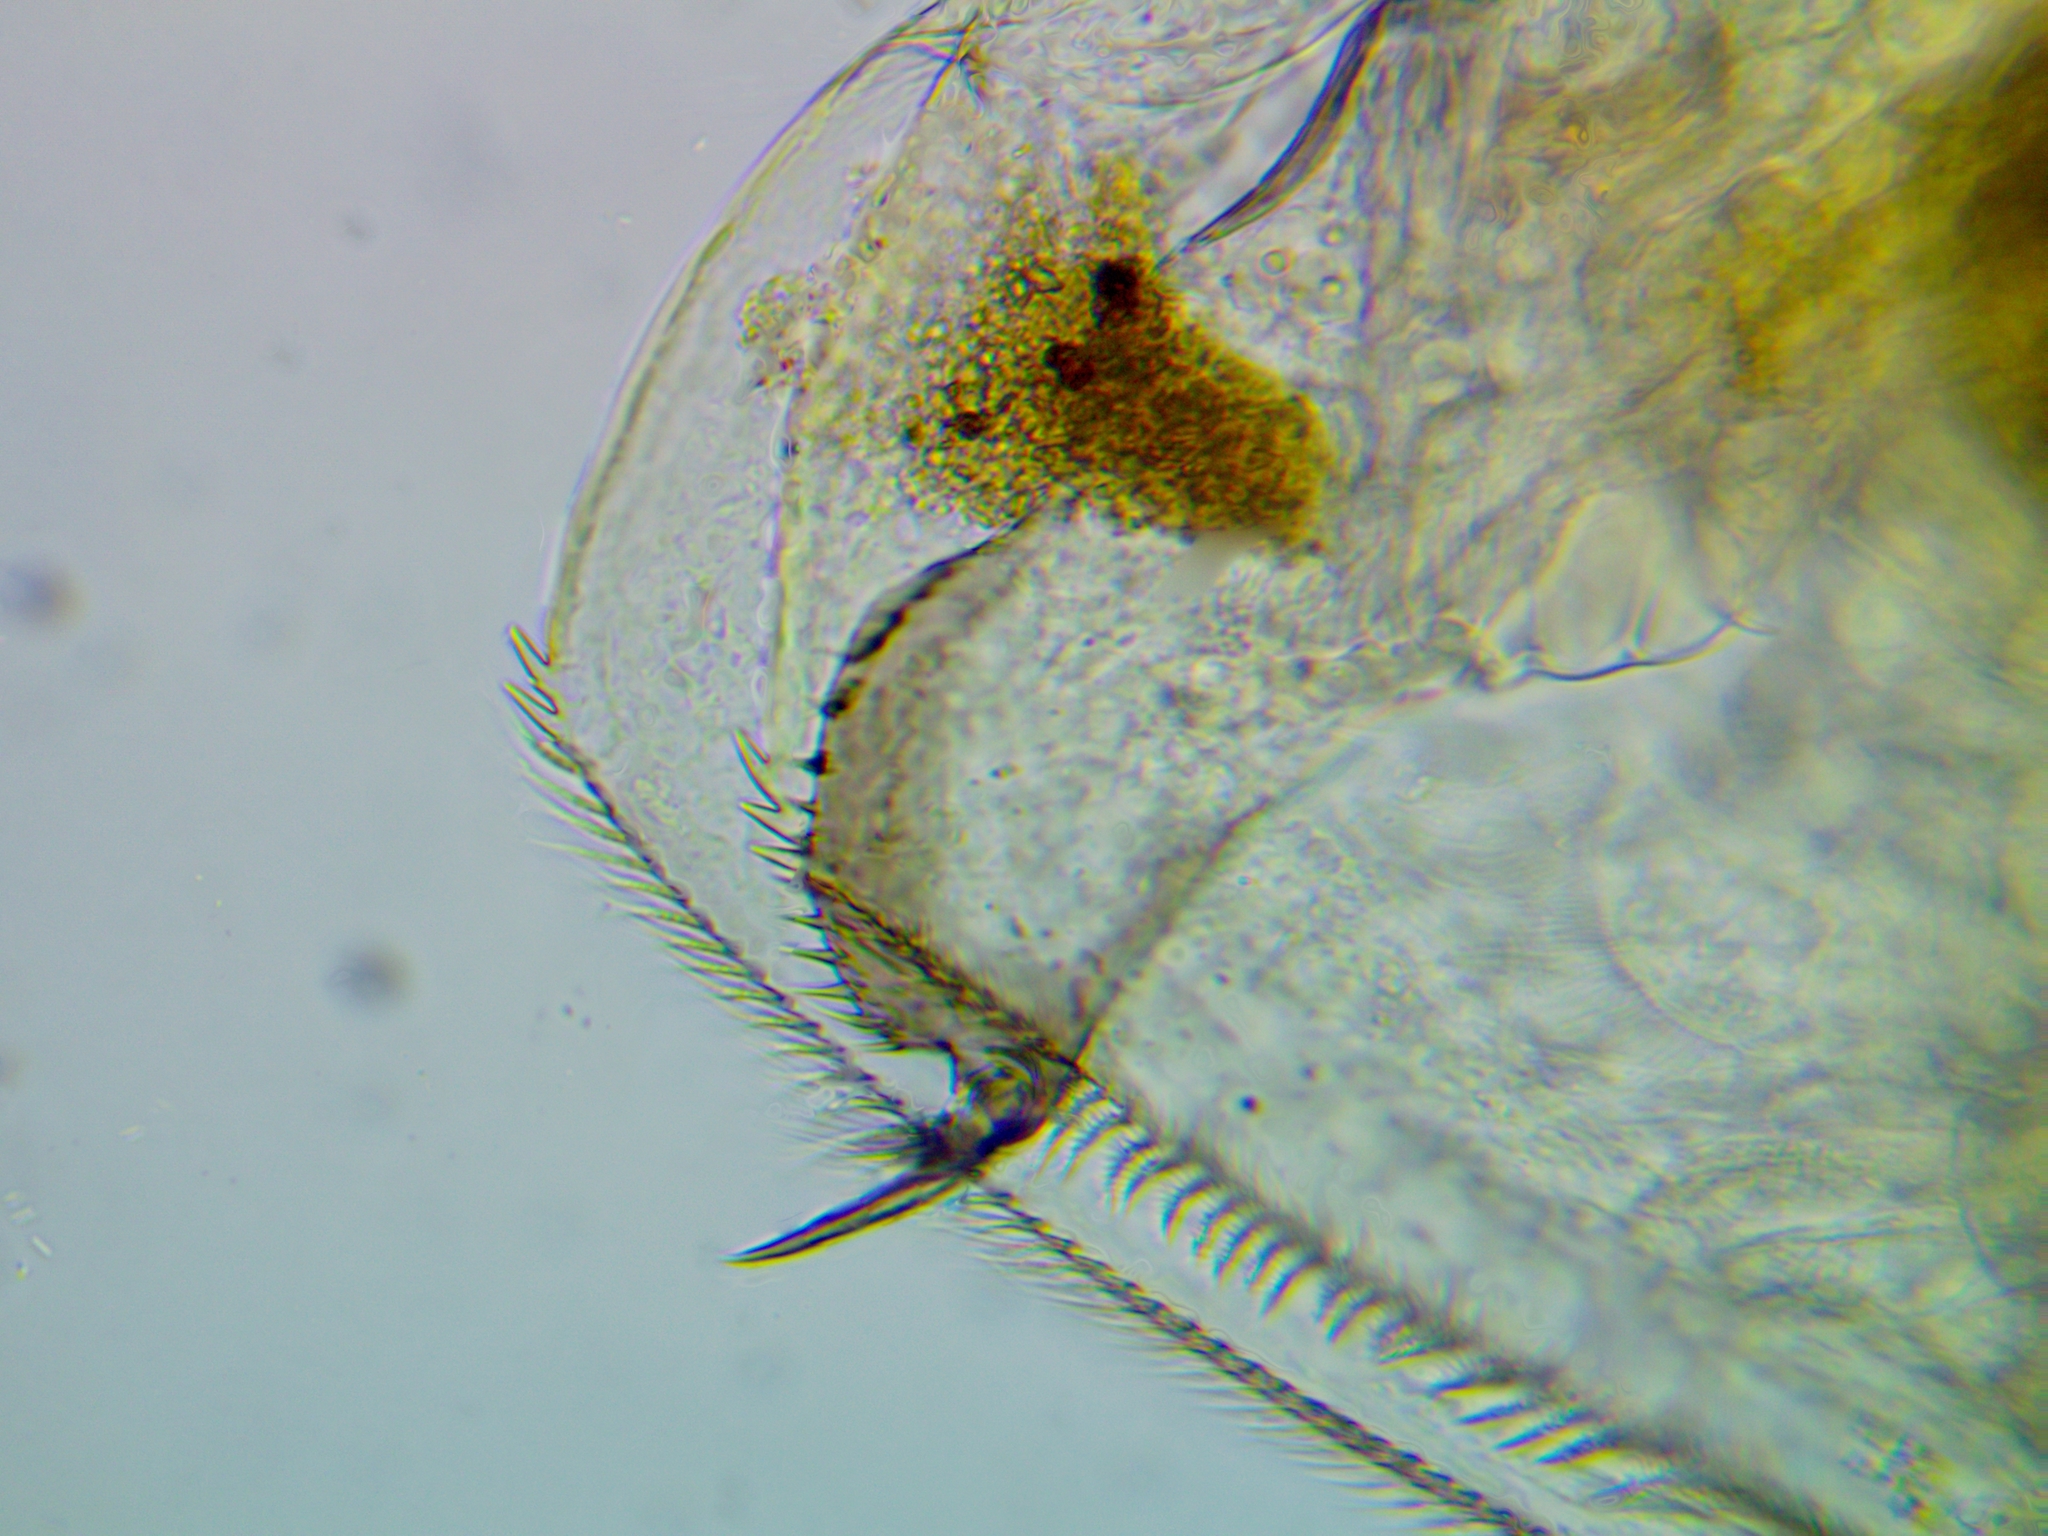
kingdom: Animalia
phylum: Arthropoda
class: Branchiopoda
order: Diplostraca
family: Chydoridae
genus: Pleuroxus
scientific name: Pleuroxus aduncus
